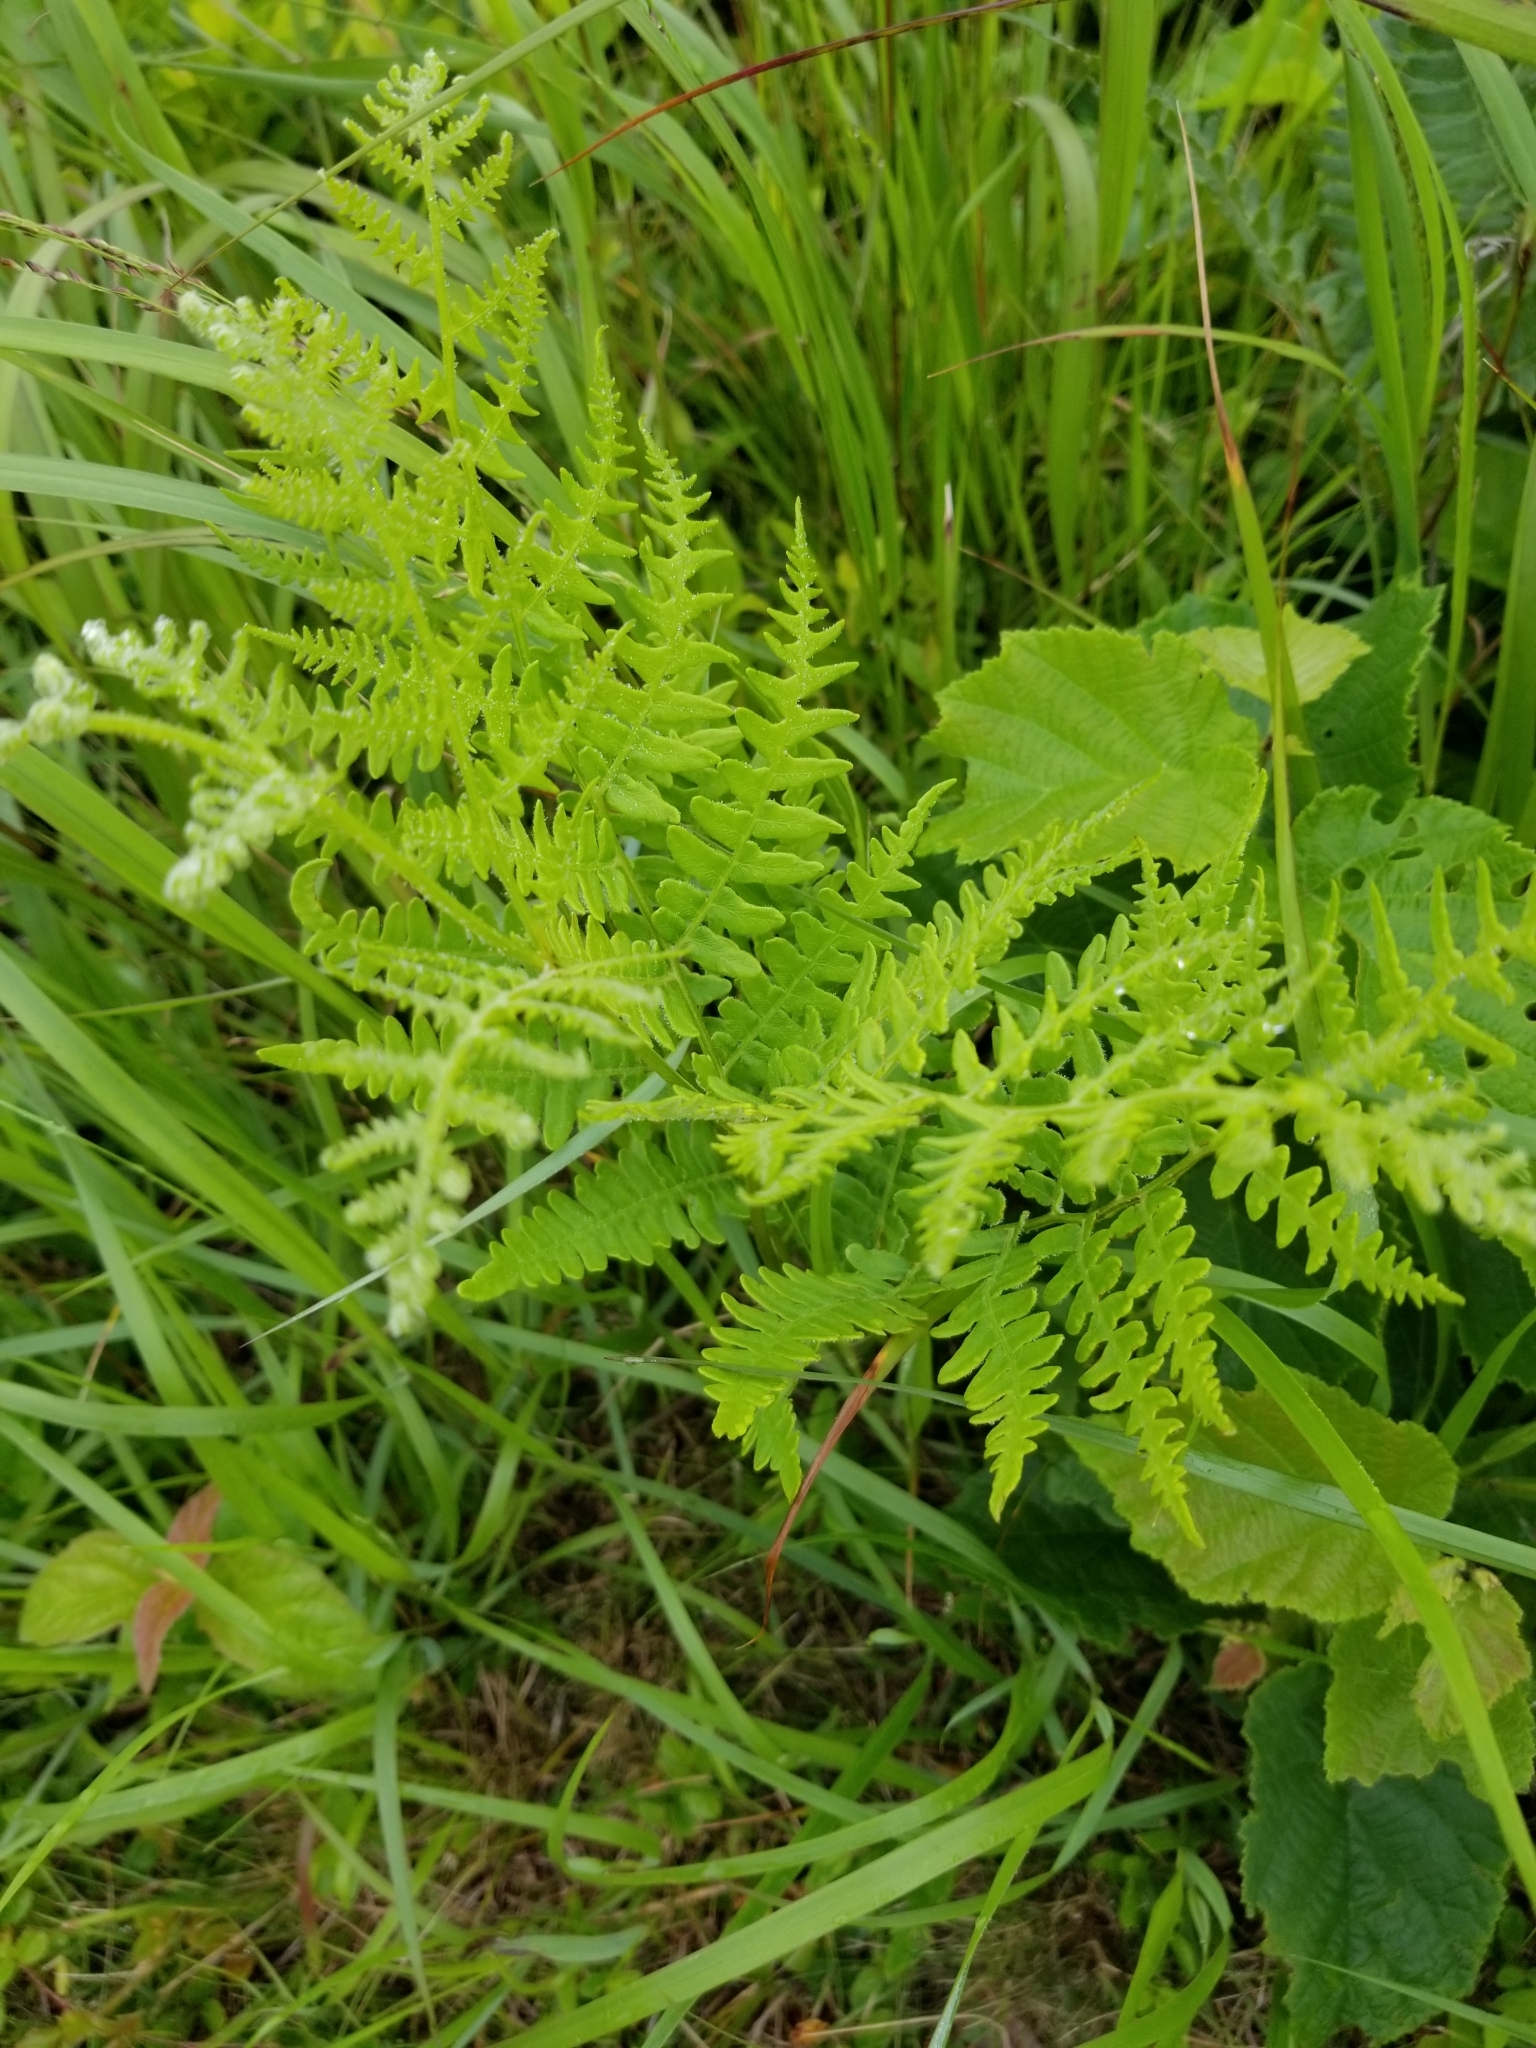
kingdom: Plantae
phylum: Tracheophyta
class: Polypodiopsida
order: Polypodiales
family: Dennstaedtiaceae
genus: Pteridium
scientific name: Pteridium aquilinum
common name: Bracken
